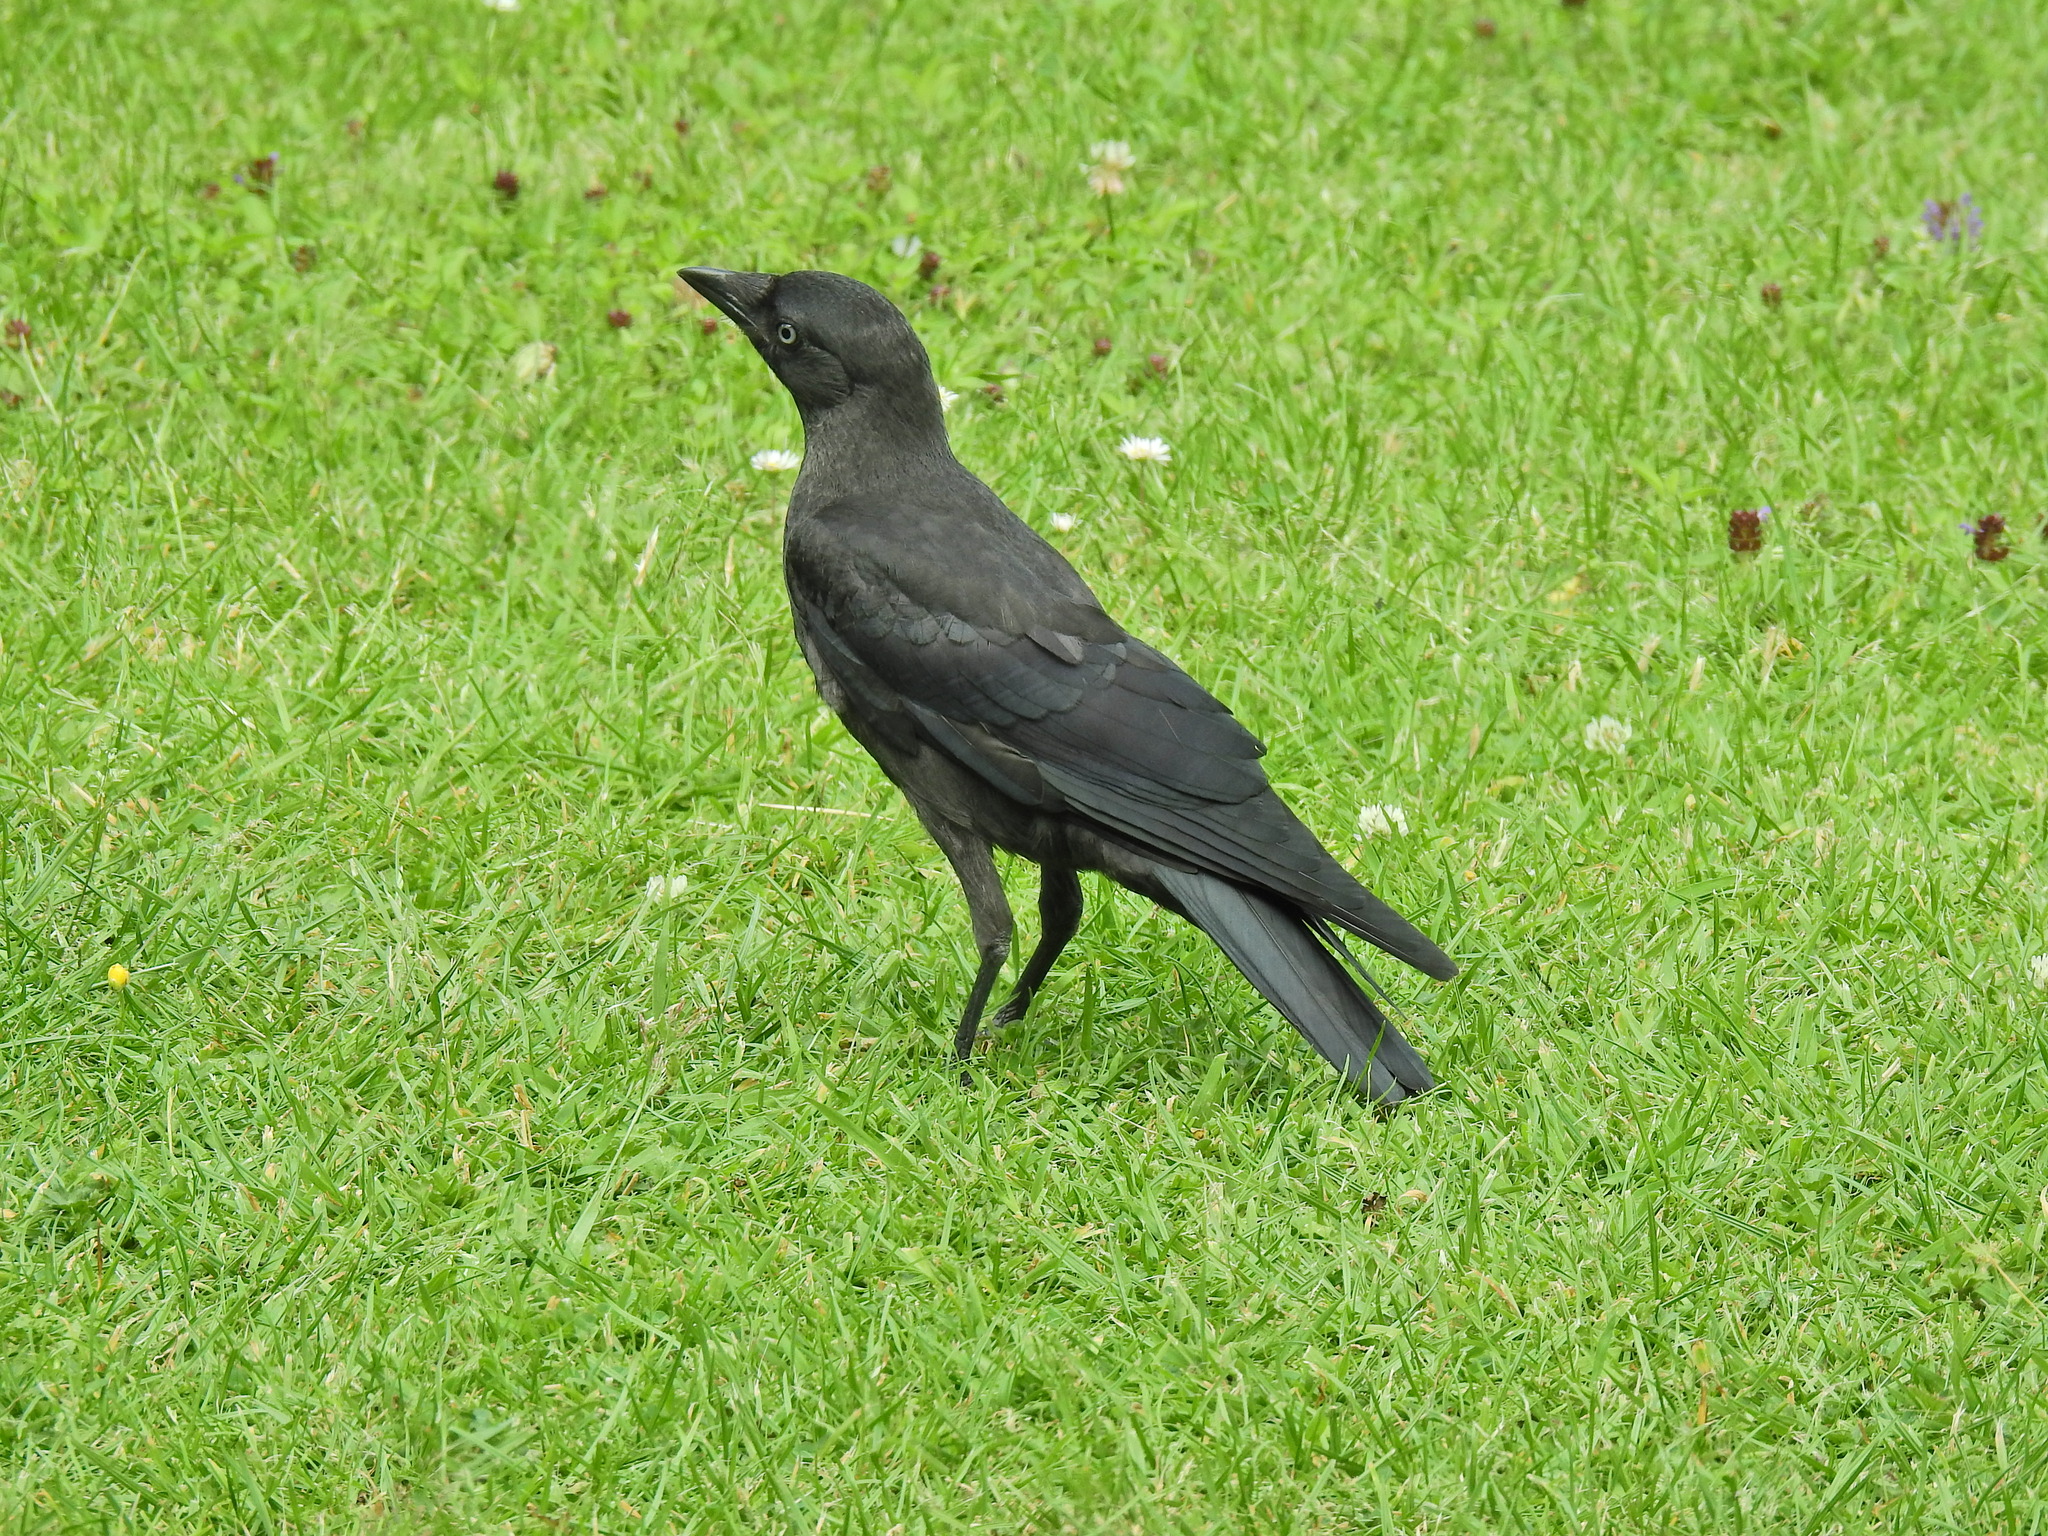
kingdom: Animalia
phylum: Chordata
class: Aves
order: Passeriformes
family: Corvidae
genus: Coloeus
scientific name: Coloeus monedula
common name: Western jackdaw
